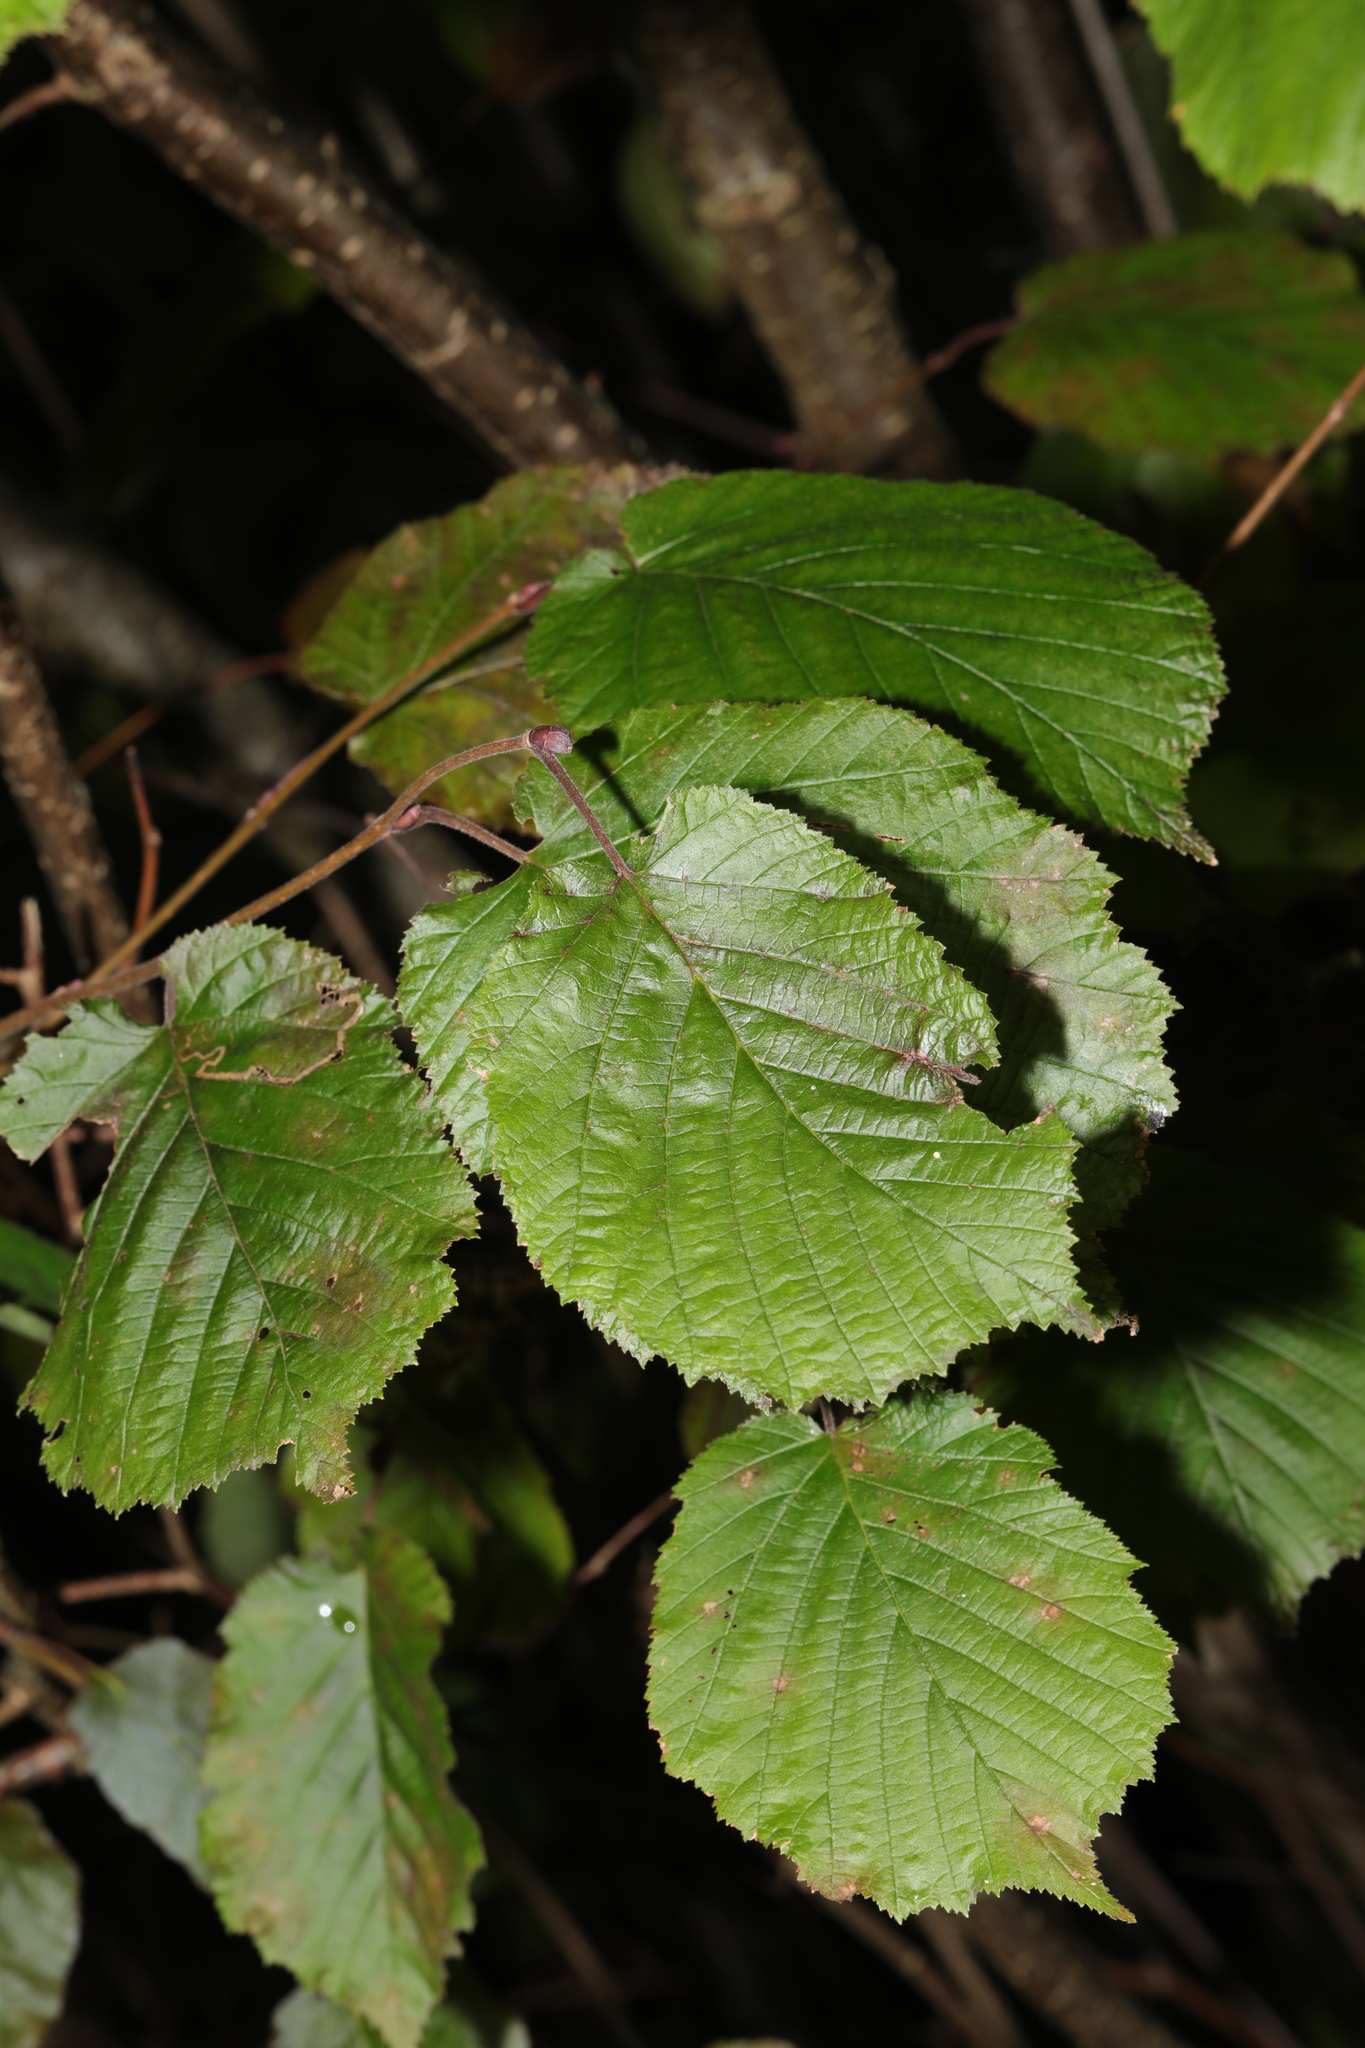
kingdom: Plantae
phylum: Tracheophyta
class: Magnoliopsida
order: Fagales
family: Betulaceae
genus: Corylus
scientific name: Corylus avellana
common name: European hazel
